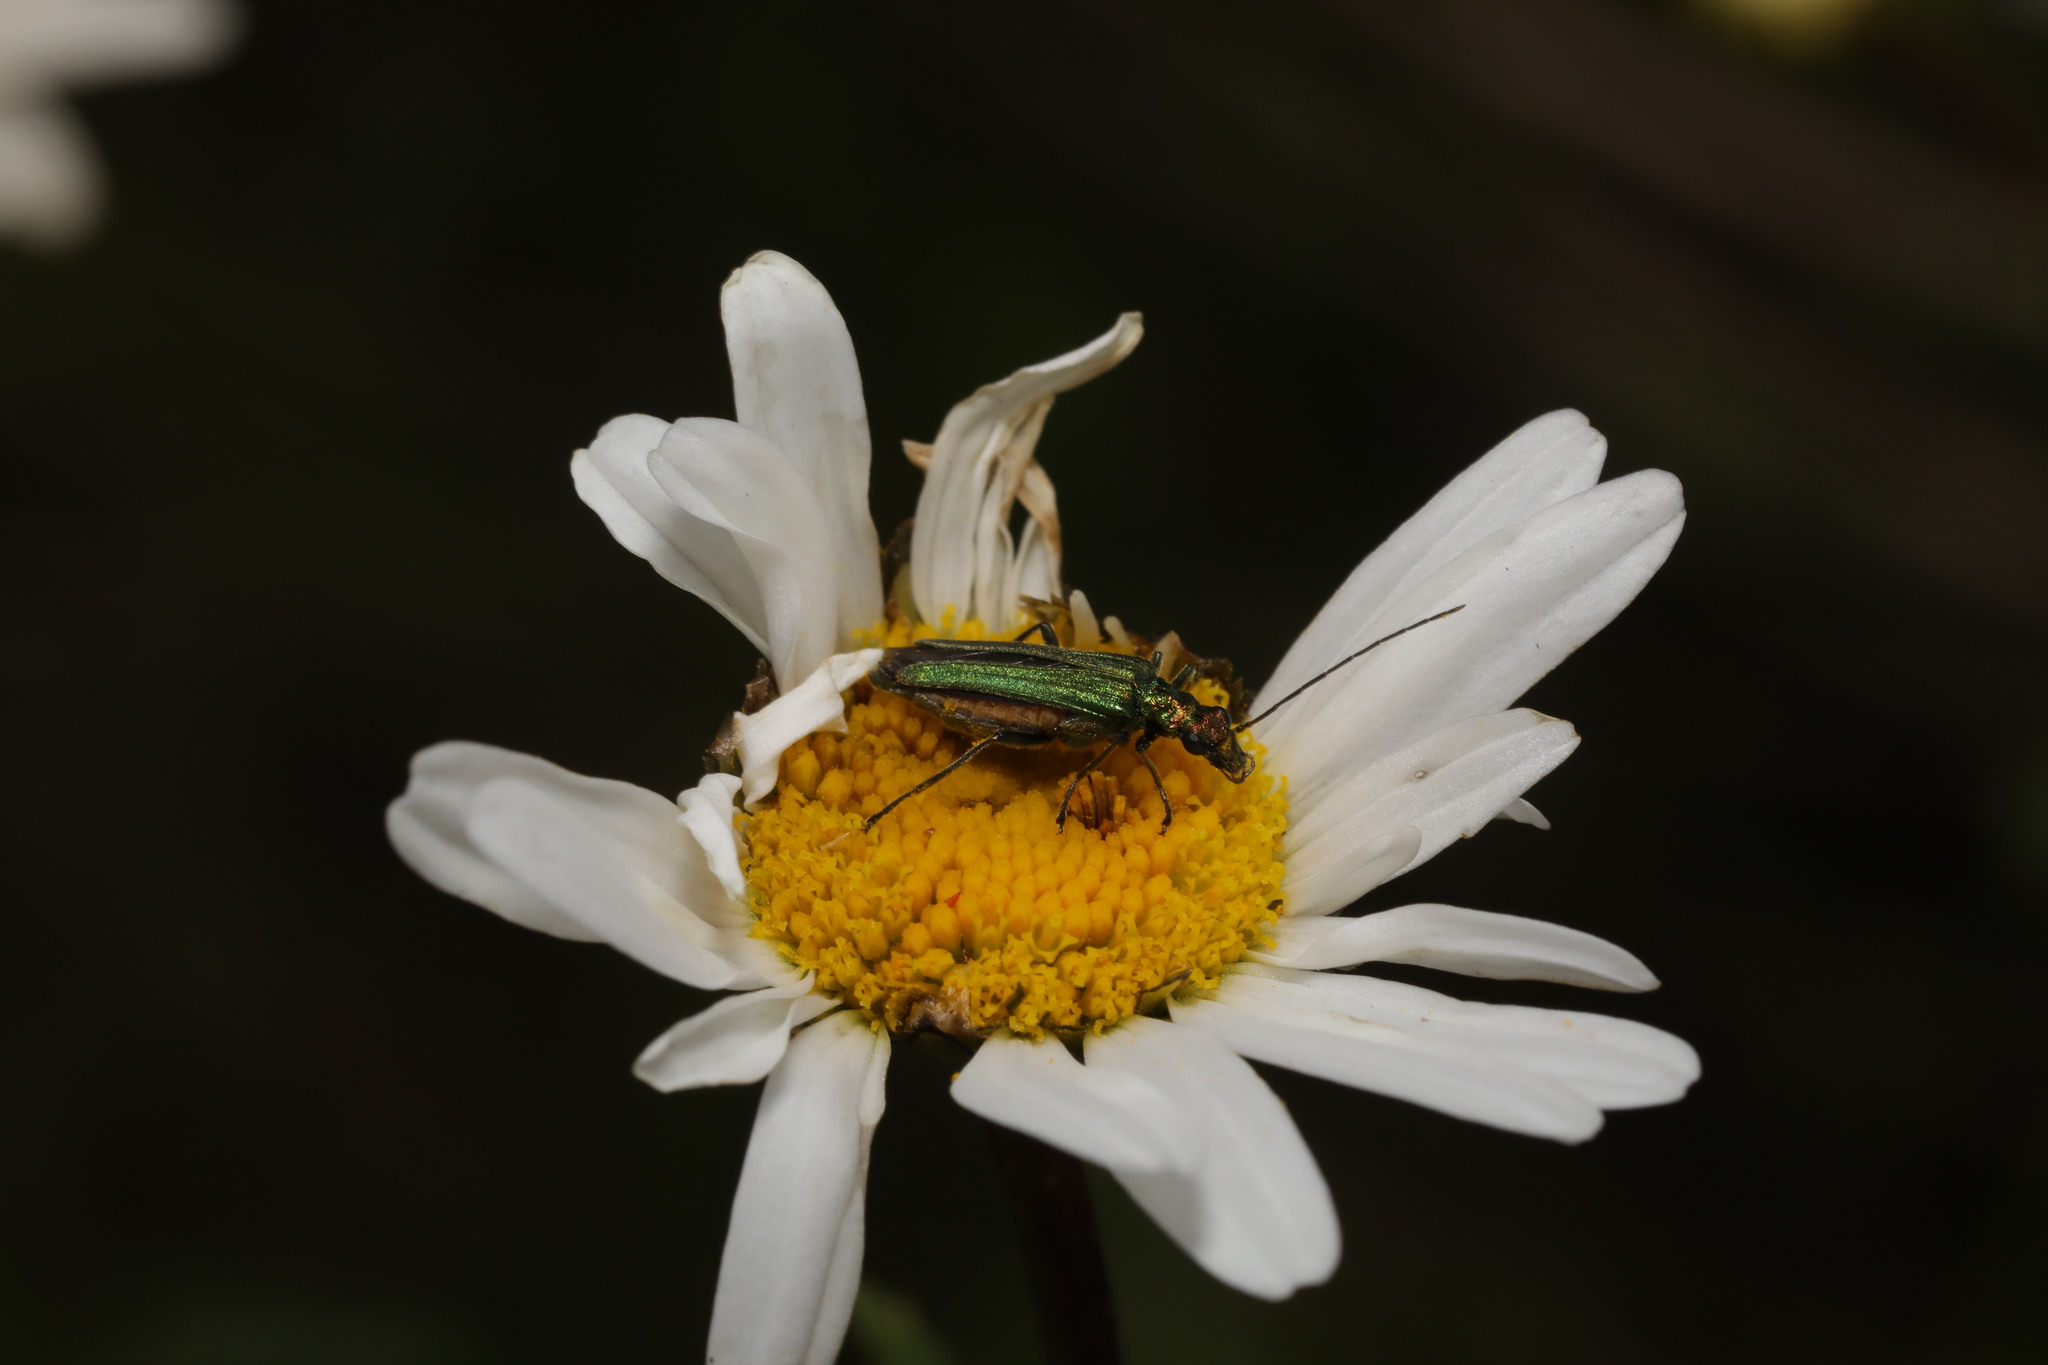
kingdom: Animalia
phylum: Arthropoda
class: Insecta
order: Coleoptera
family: Oedemeridae
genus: Oedemera
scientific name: Oedemera nobilis
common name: Swollen-thighed beetle
